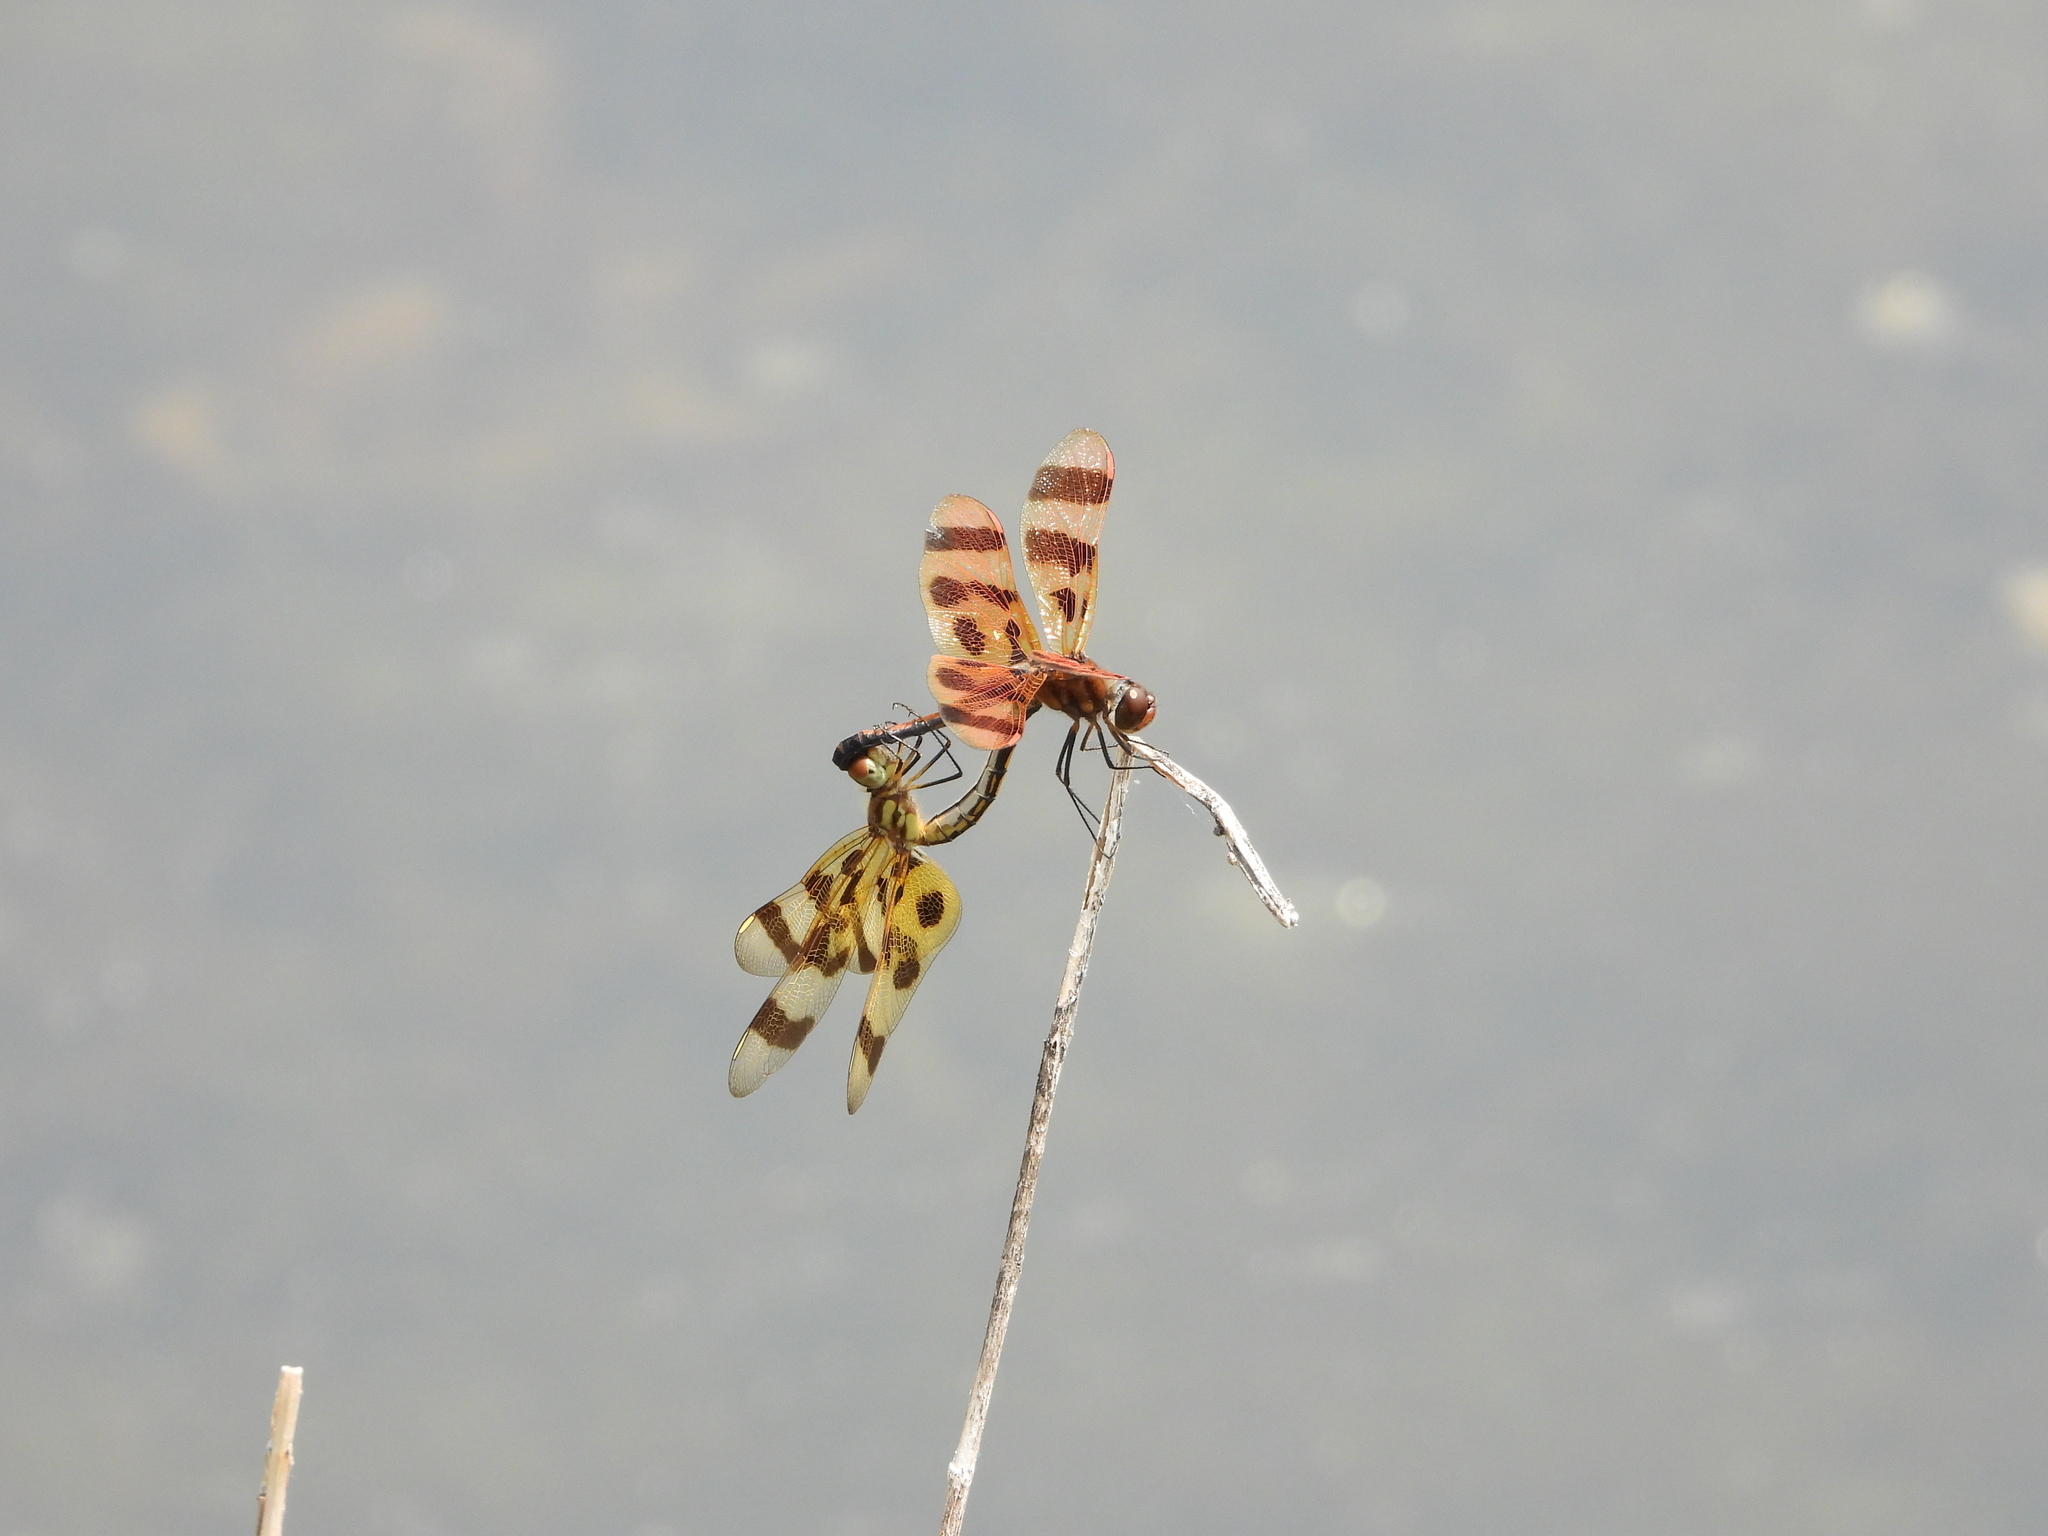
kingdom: Animalia
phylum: Arthropoda
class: Insecta
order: Odonata
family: Libellulidae
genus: Celithemis
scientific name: Celithemis eponina
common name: Halloween pennant
